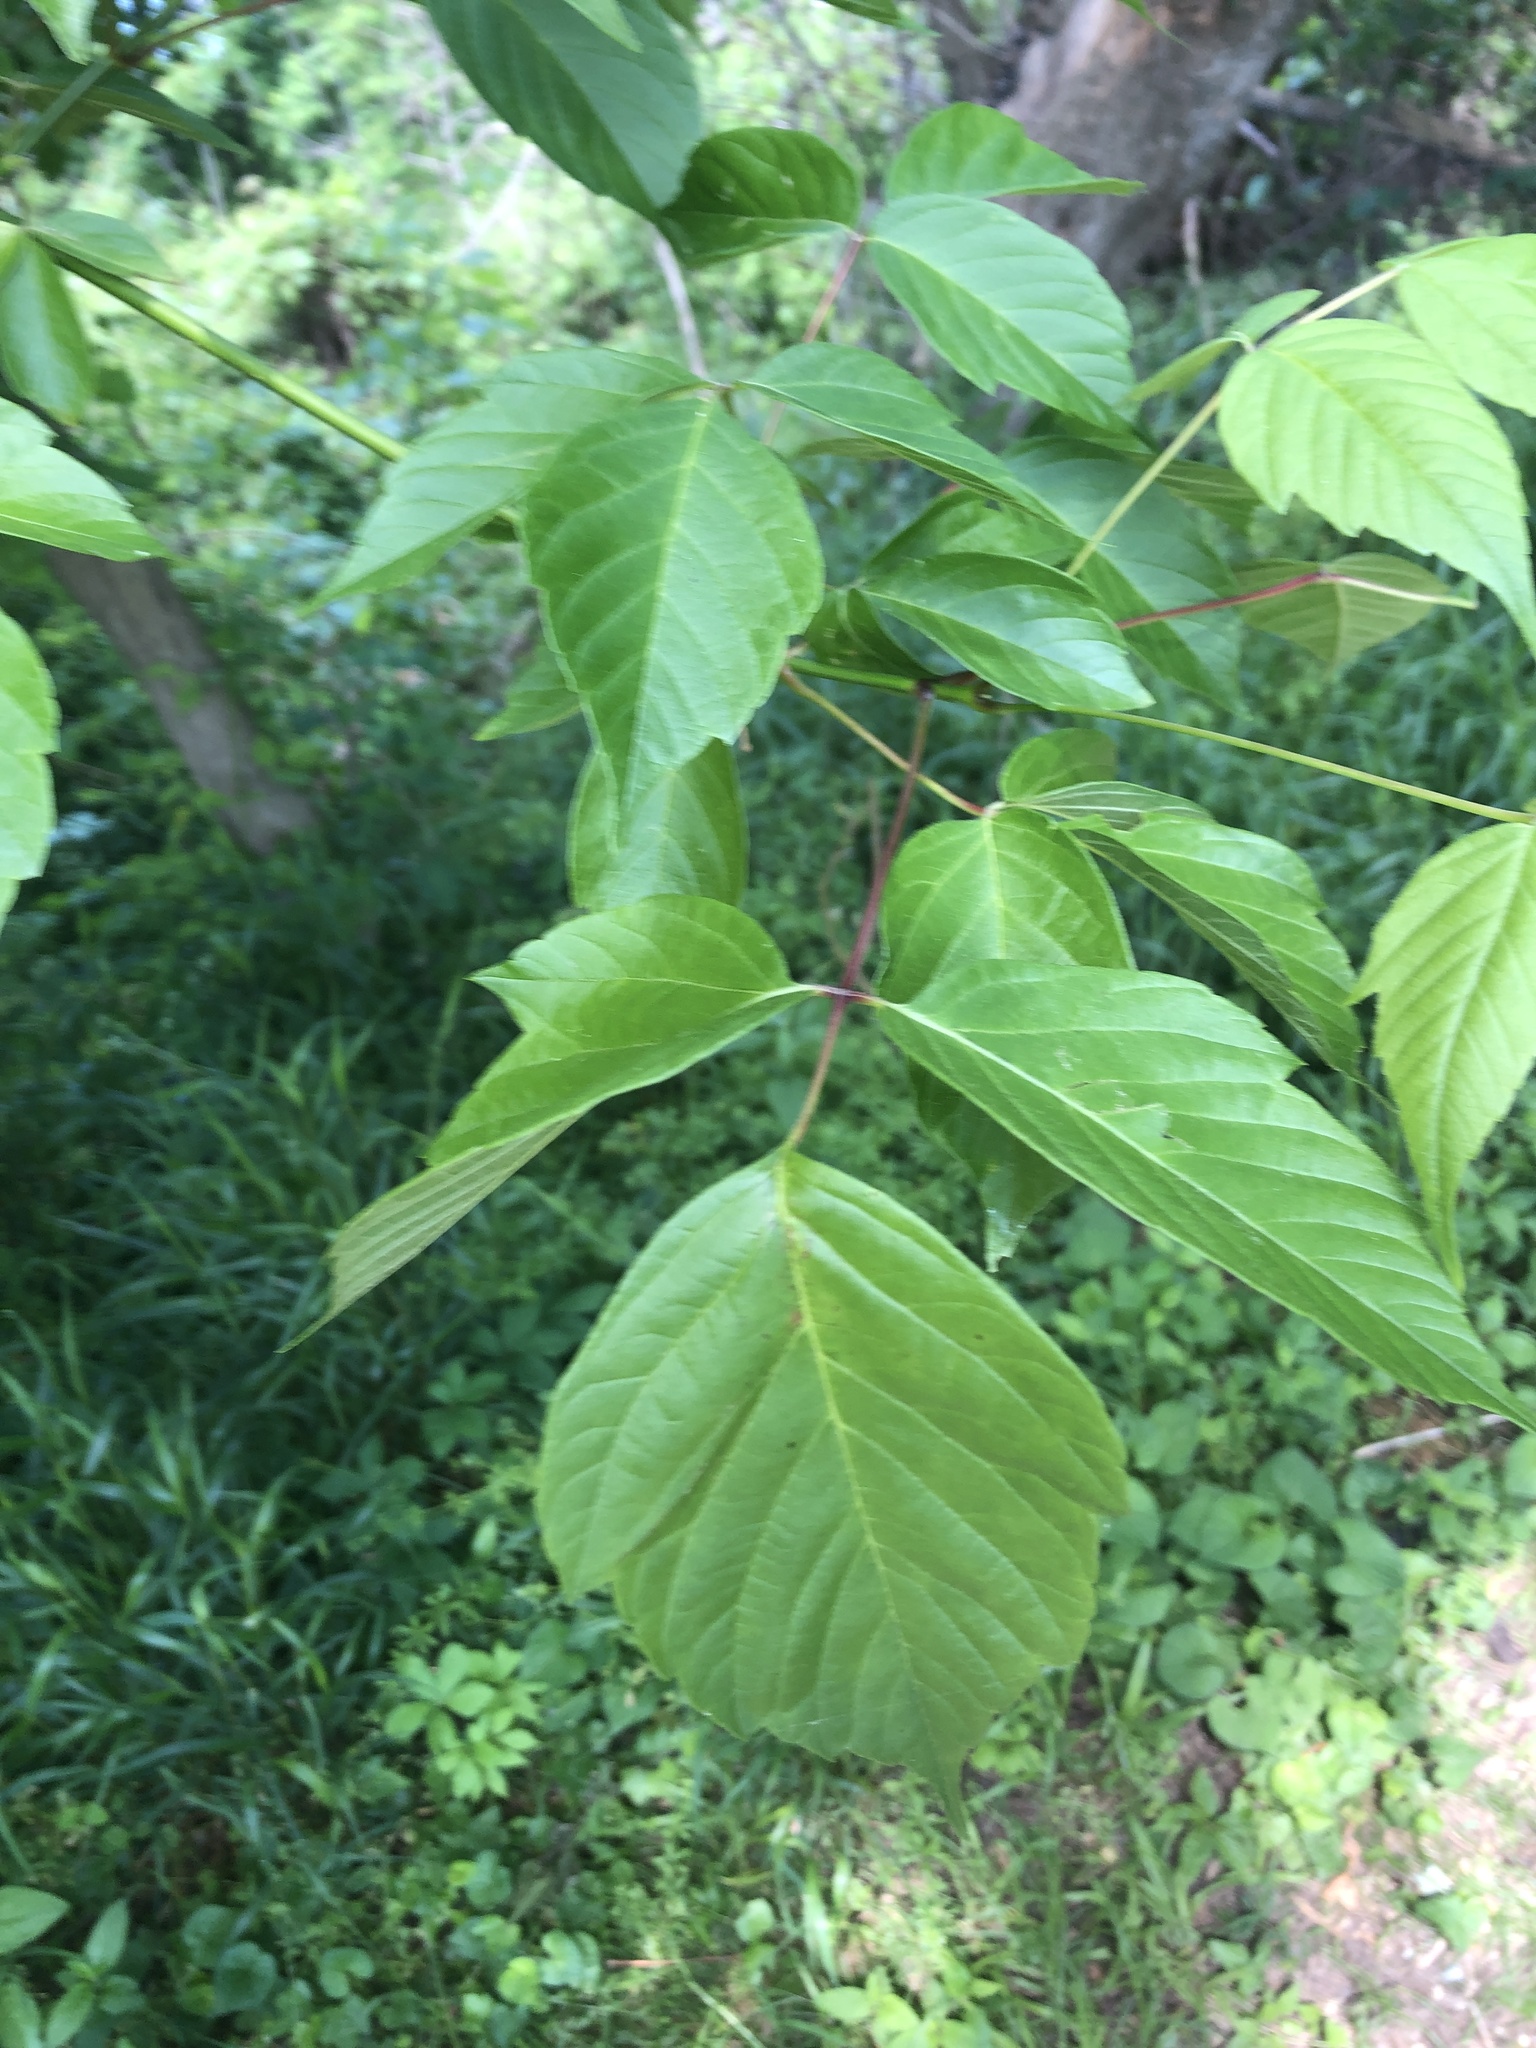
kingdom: Plantae
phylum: Tracheophyta
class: Magnoliopsida
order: Sapindales
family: Sapindaceae
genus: Acer
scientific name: Acer negundo
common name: Ashleaf maple
